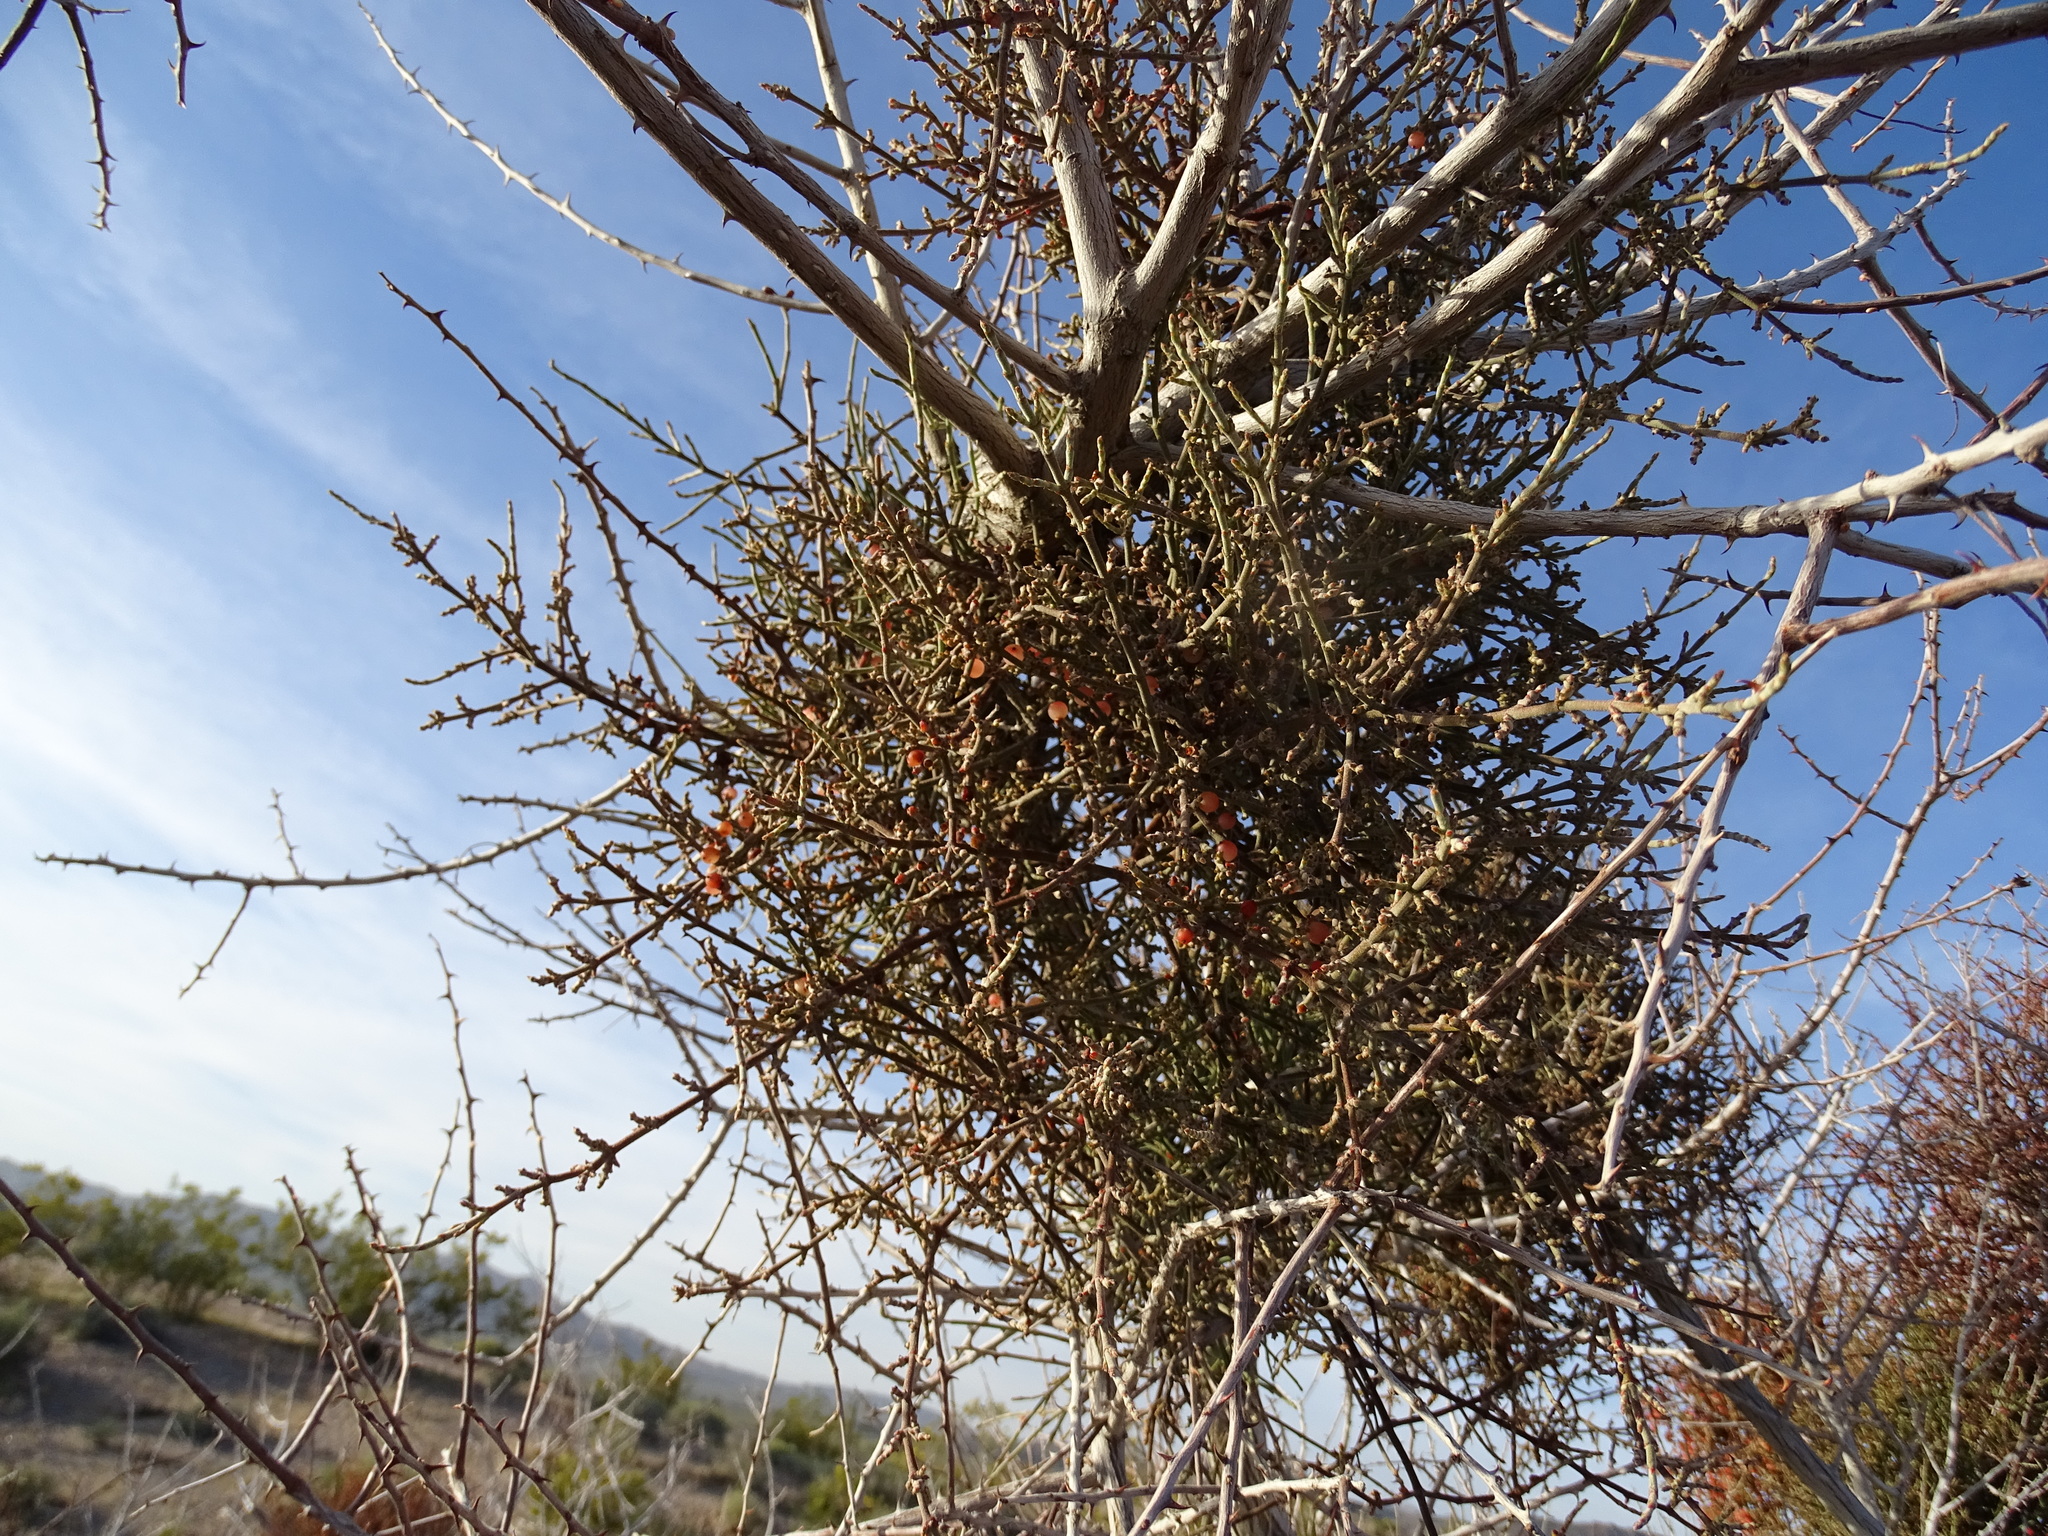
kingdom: Plantae
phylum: Tracheophyta
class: Magnoliopsida
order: Santalales
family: Viscaceae
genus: Phoradendron
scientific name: Phoradendron californicum
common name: Acacia mistletoe
